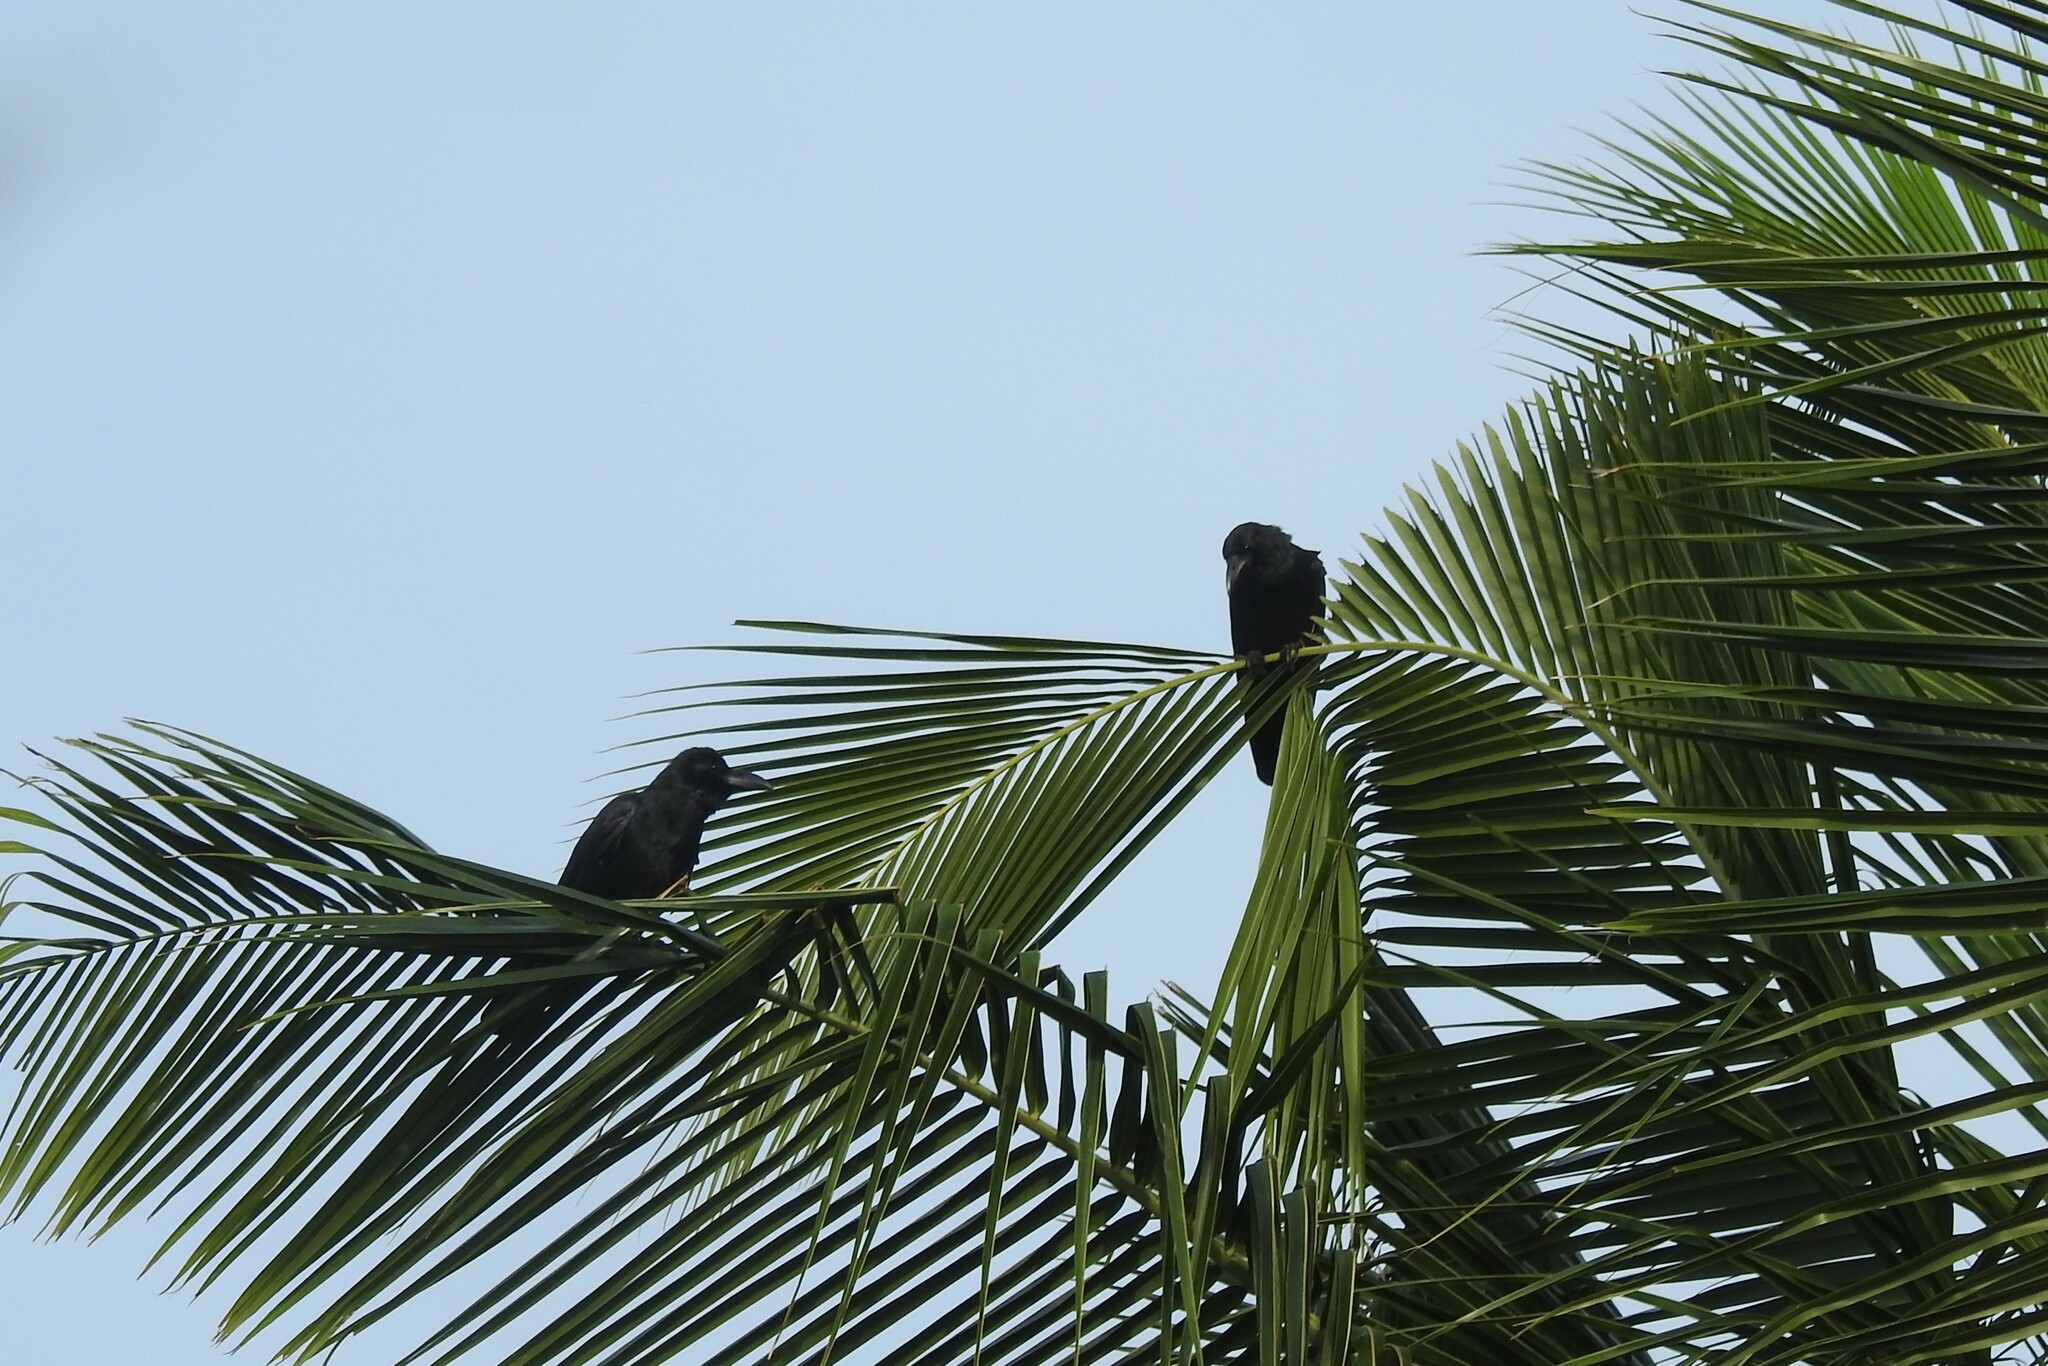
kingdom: Animalia
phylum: Chordata
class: Aves
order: Suliformes
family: Phalacrocoracidae
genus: Microcarbo
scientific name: Microcarbo niger
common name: Little cormorant
